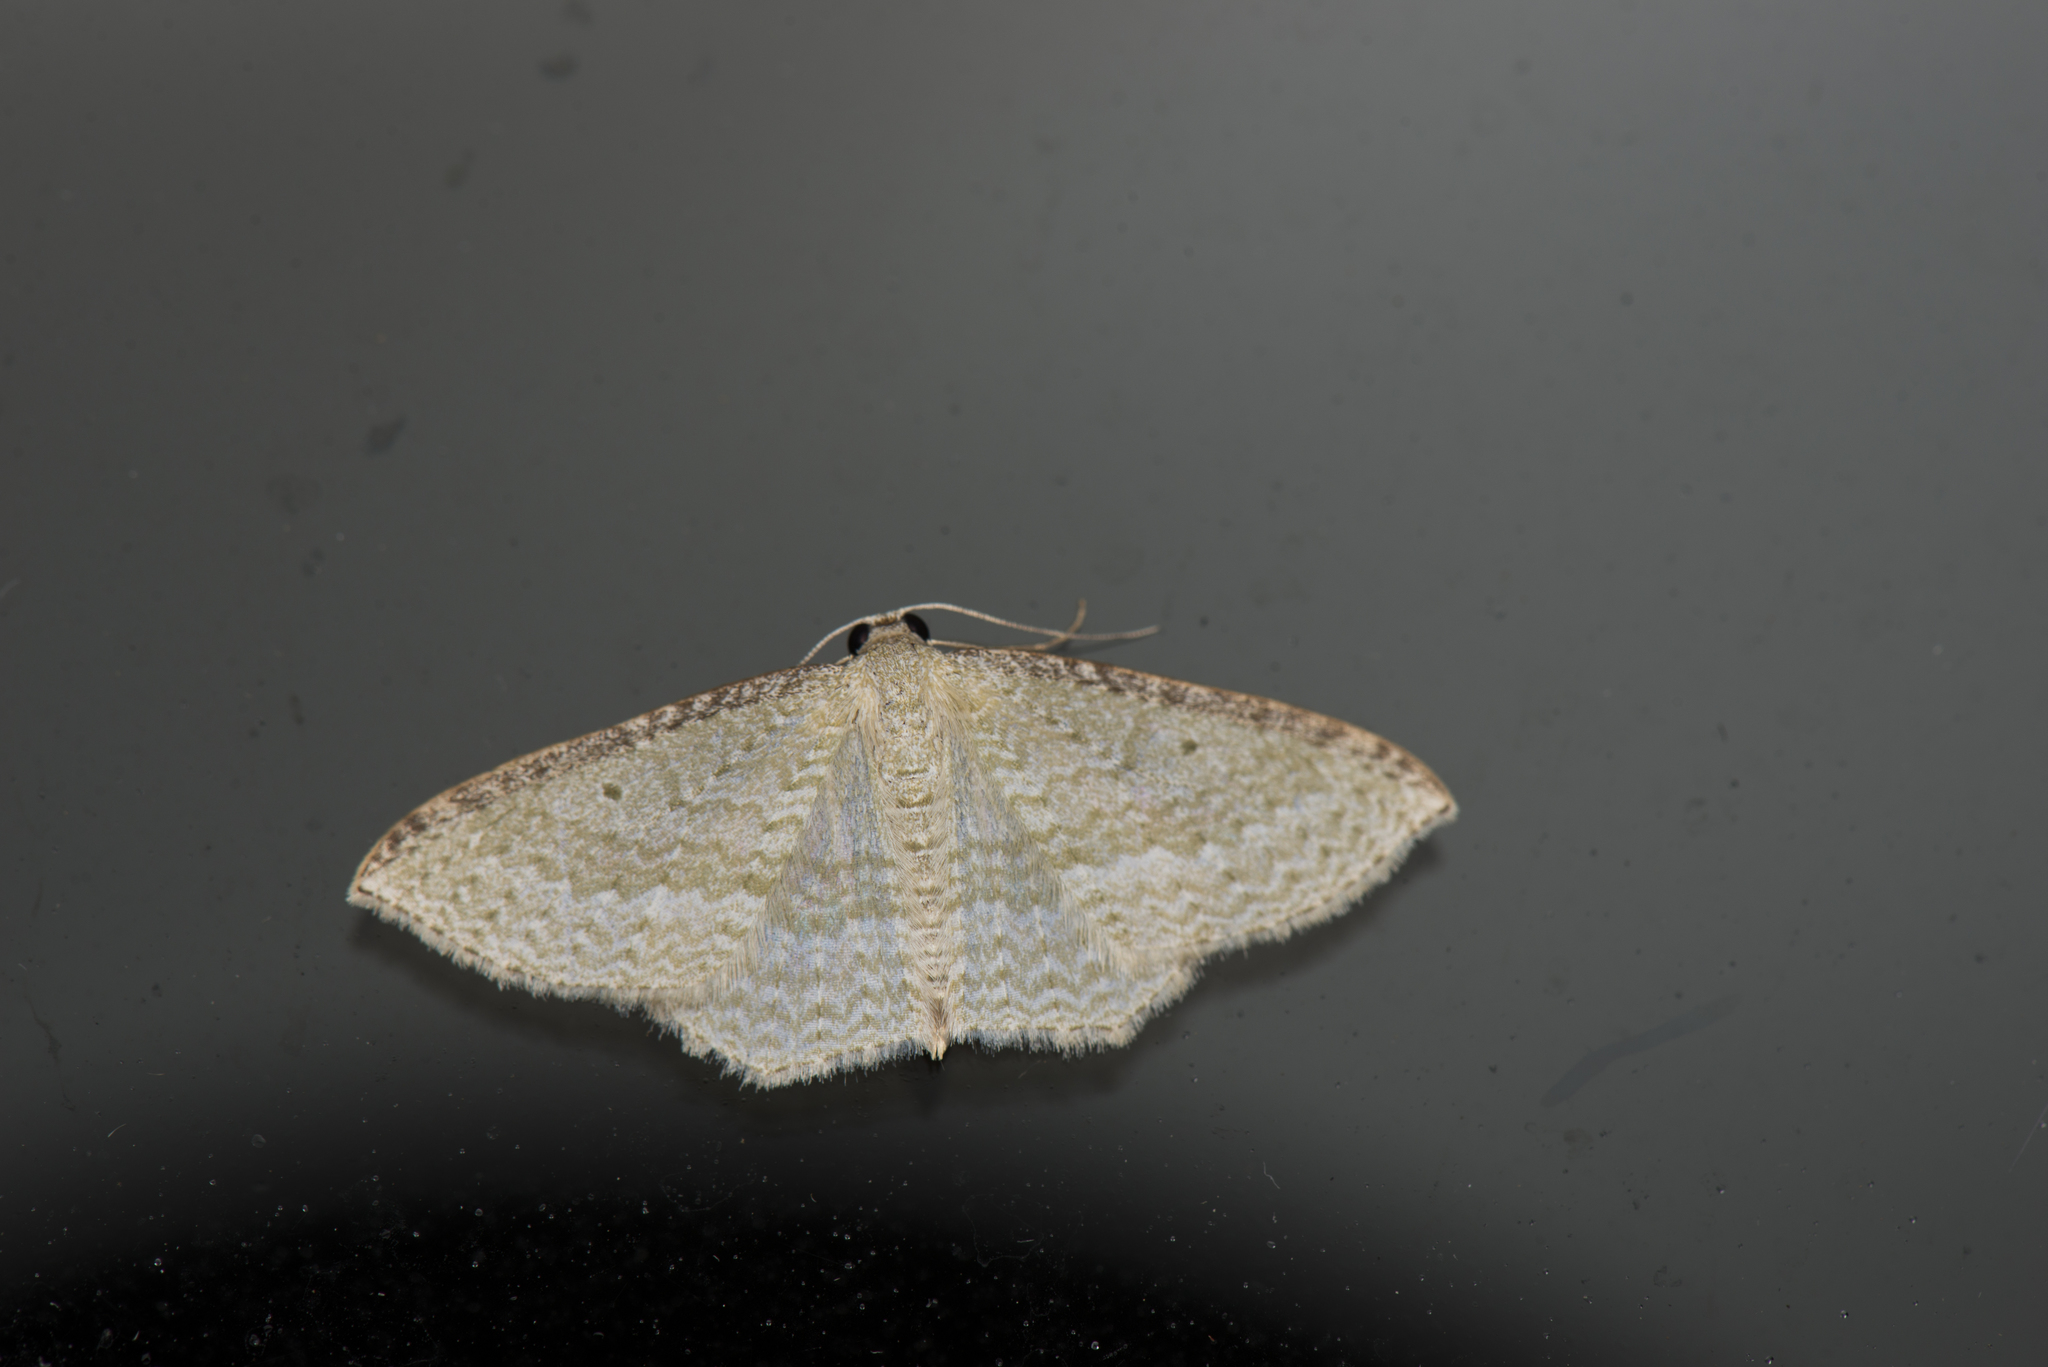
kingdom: Animalia
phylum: Arthropoda
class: Insecta
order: Lepidoptera
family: Geometridae
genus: Poecilasthena
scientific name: Poecilasthena pulchraria
